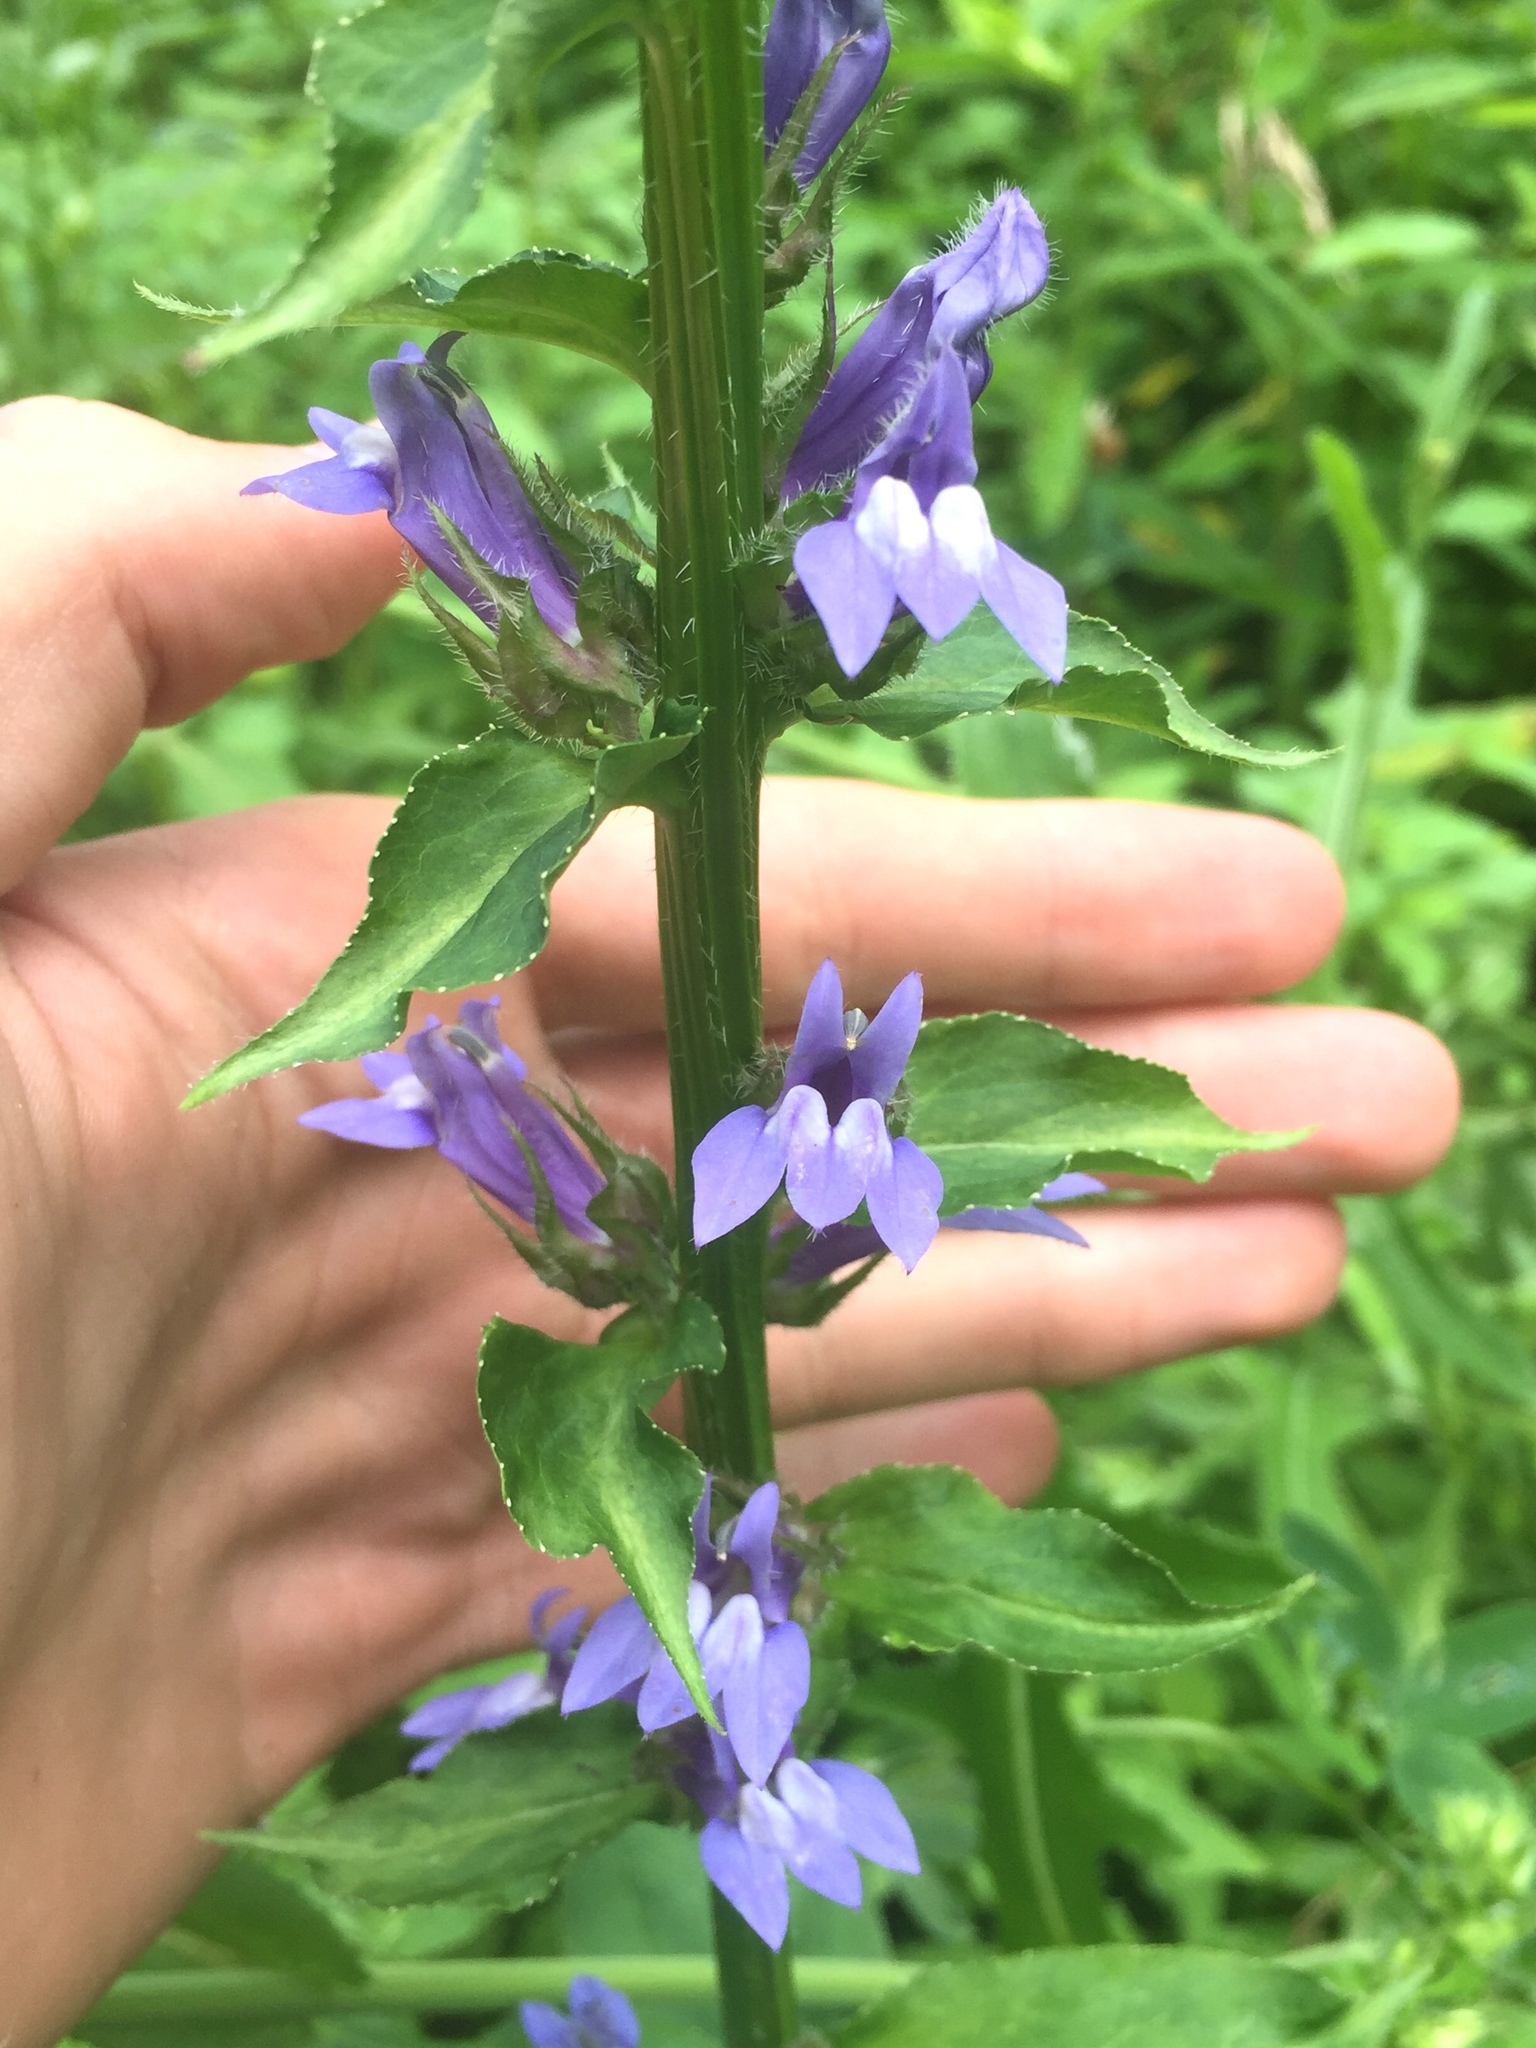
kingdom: Plantae
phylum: Tracheophyta
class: Magnoliopsida
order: Asterales
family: Campanulaceae
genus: Lobelia
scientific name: Lobelia siphilitica
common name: Great lobelia
